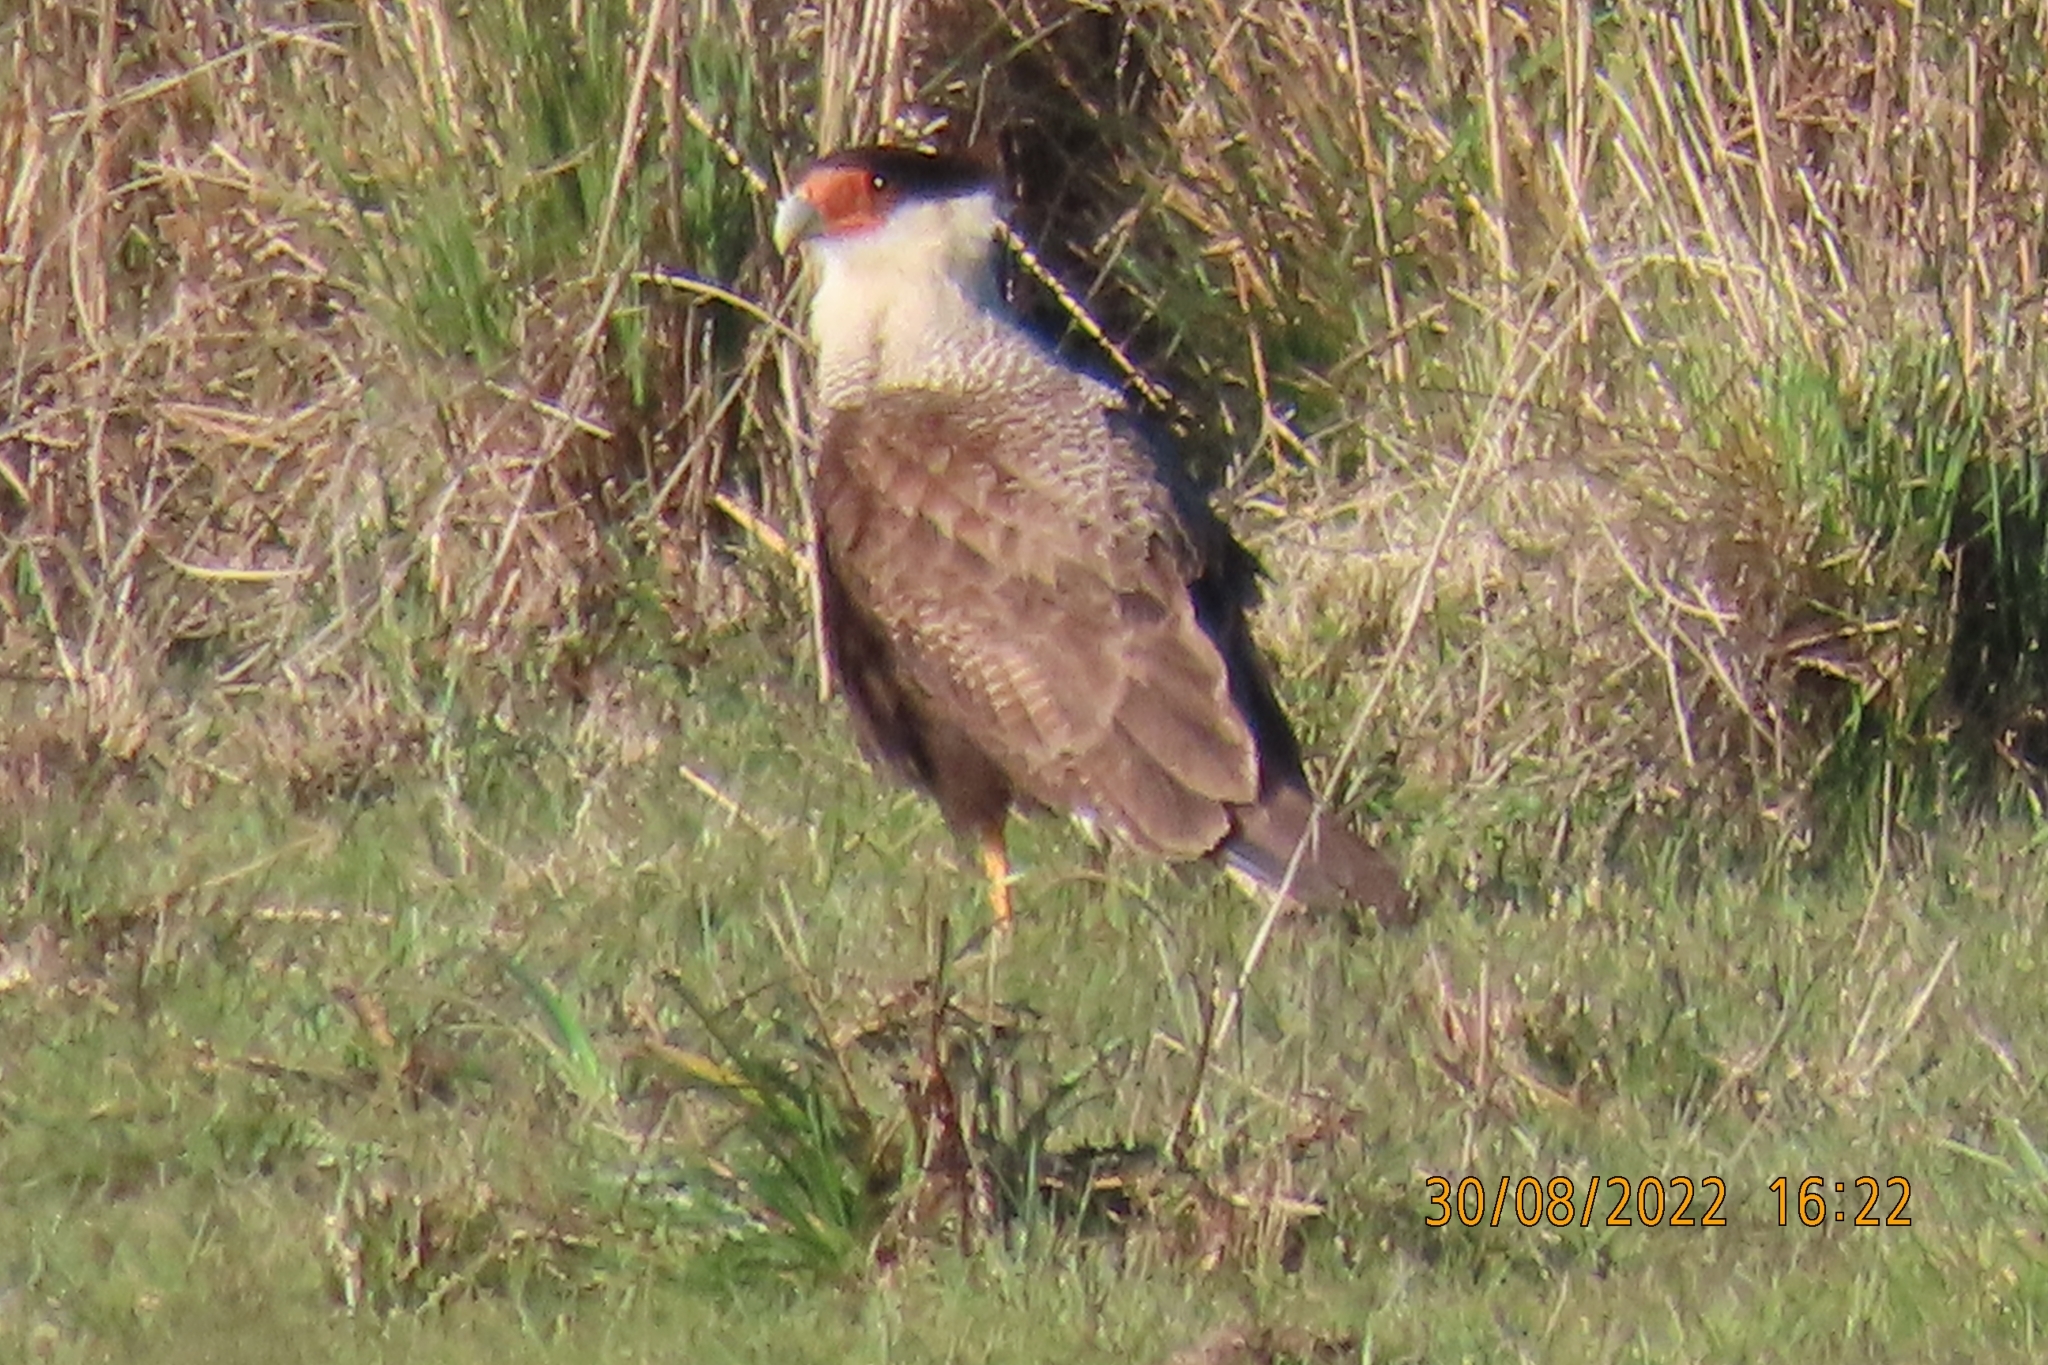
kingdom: Animalia
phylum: Chordata
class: Aves
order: Falconiformes
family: Falconidae
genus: Caracara
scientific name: Caracara plancus
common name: Southern caracara
